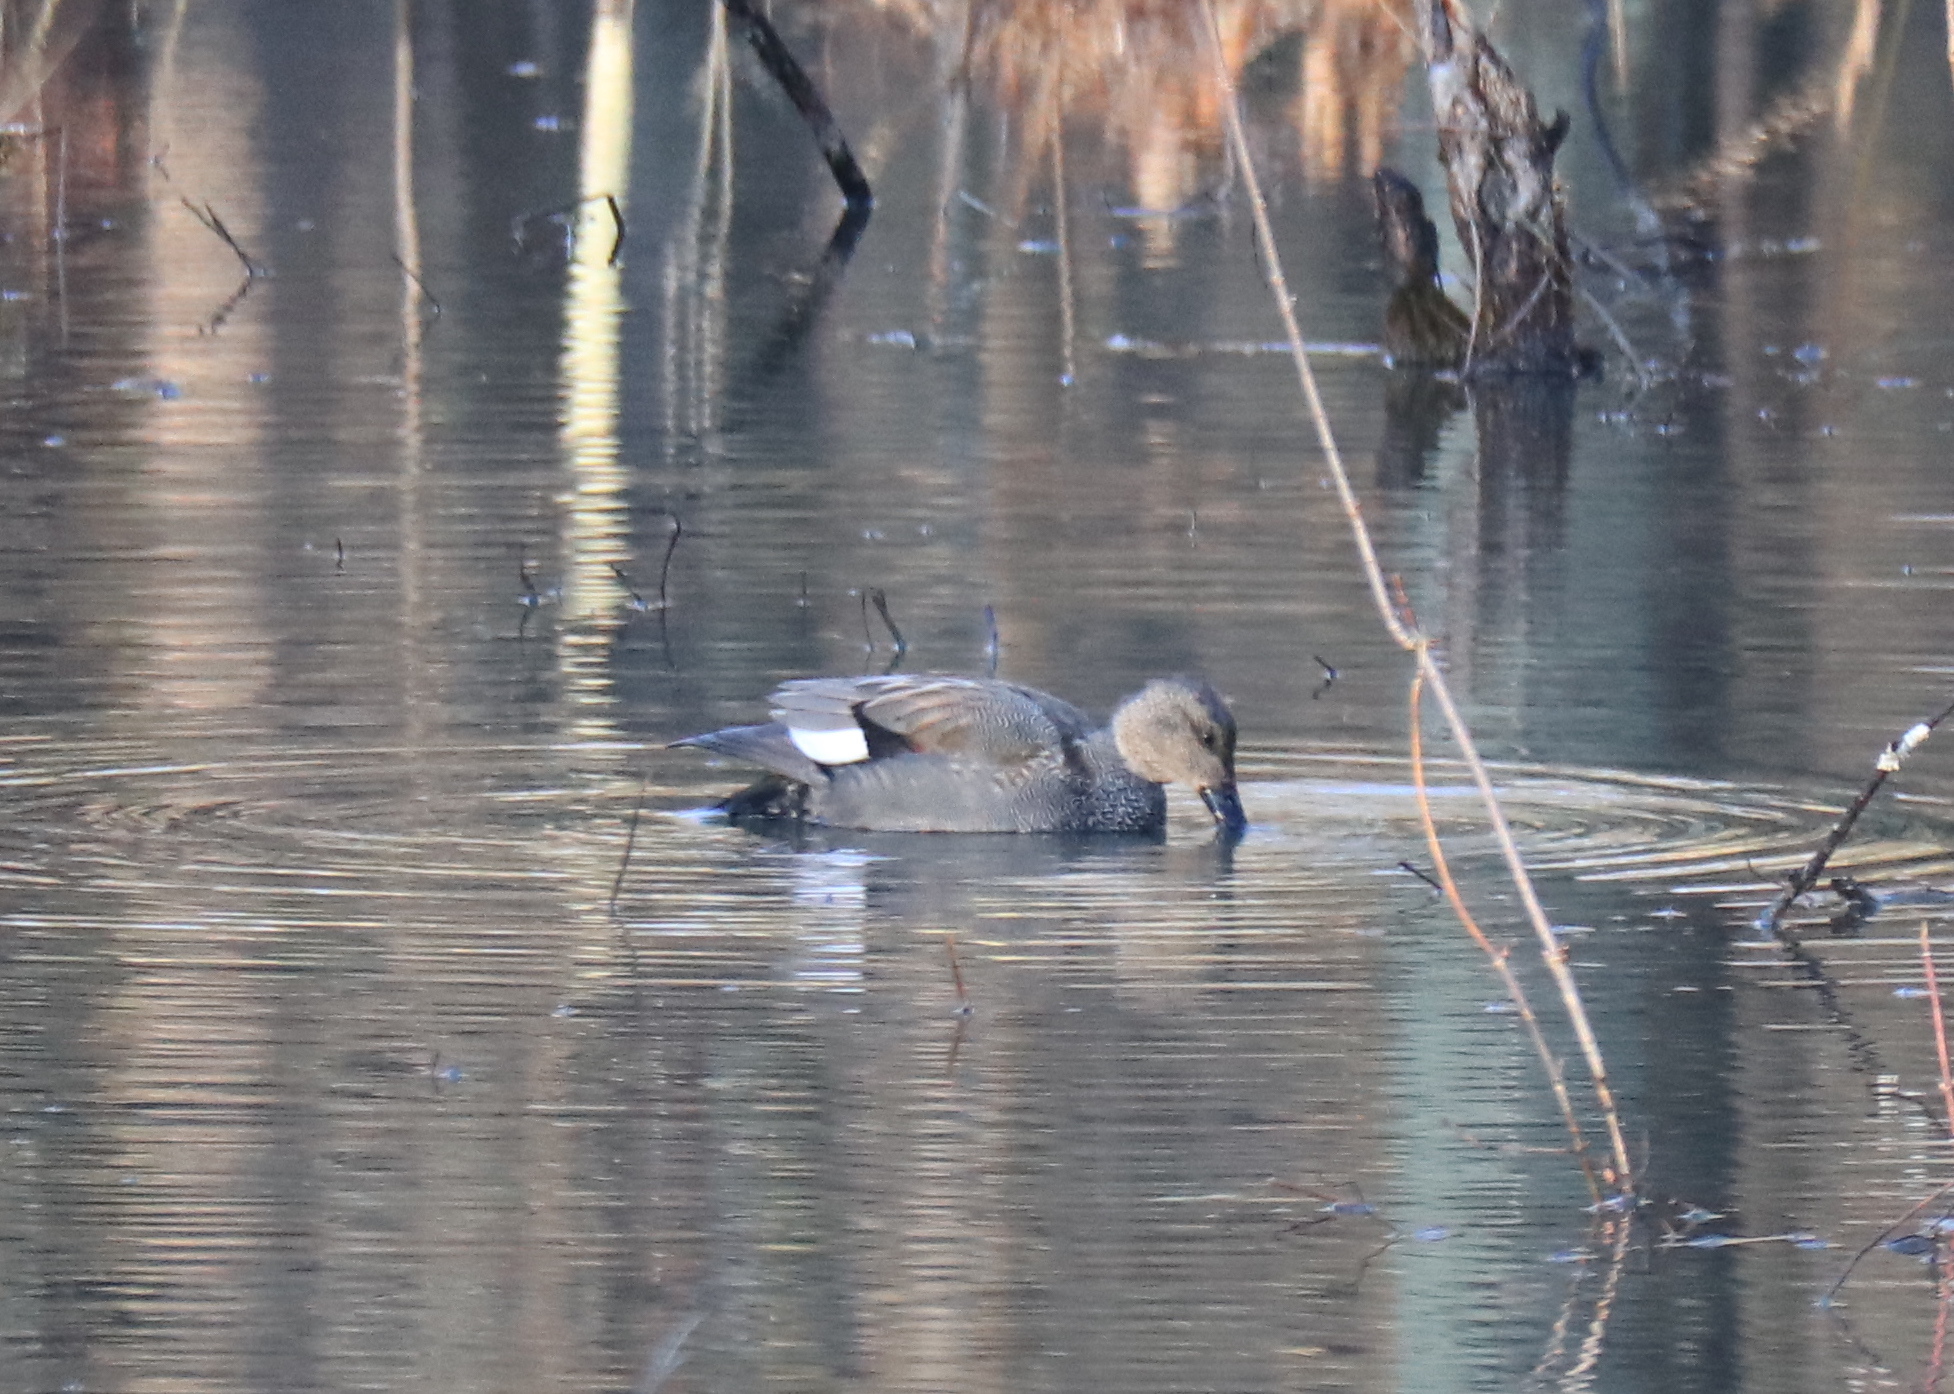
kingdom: Animalia
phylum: Chordata
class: Aves
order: Anseriformes
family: Anatidae
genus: Mareca
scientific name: Mareca strepera
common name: Gadwall
